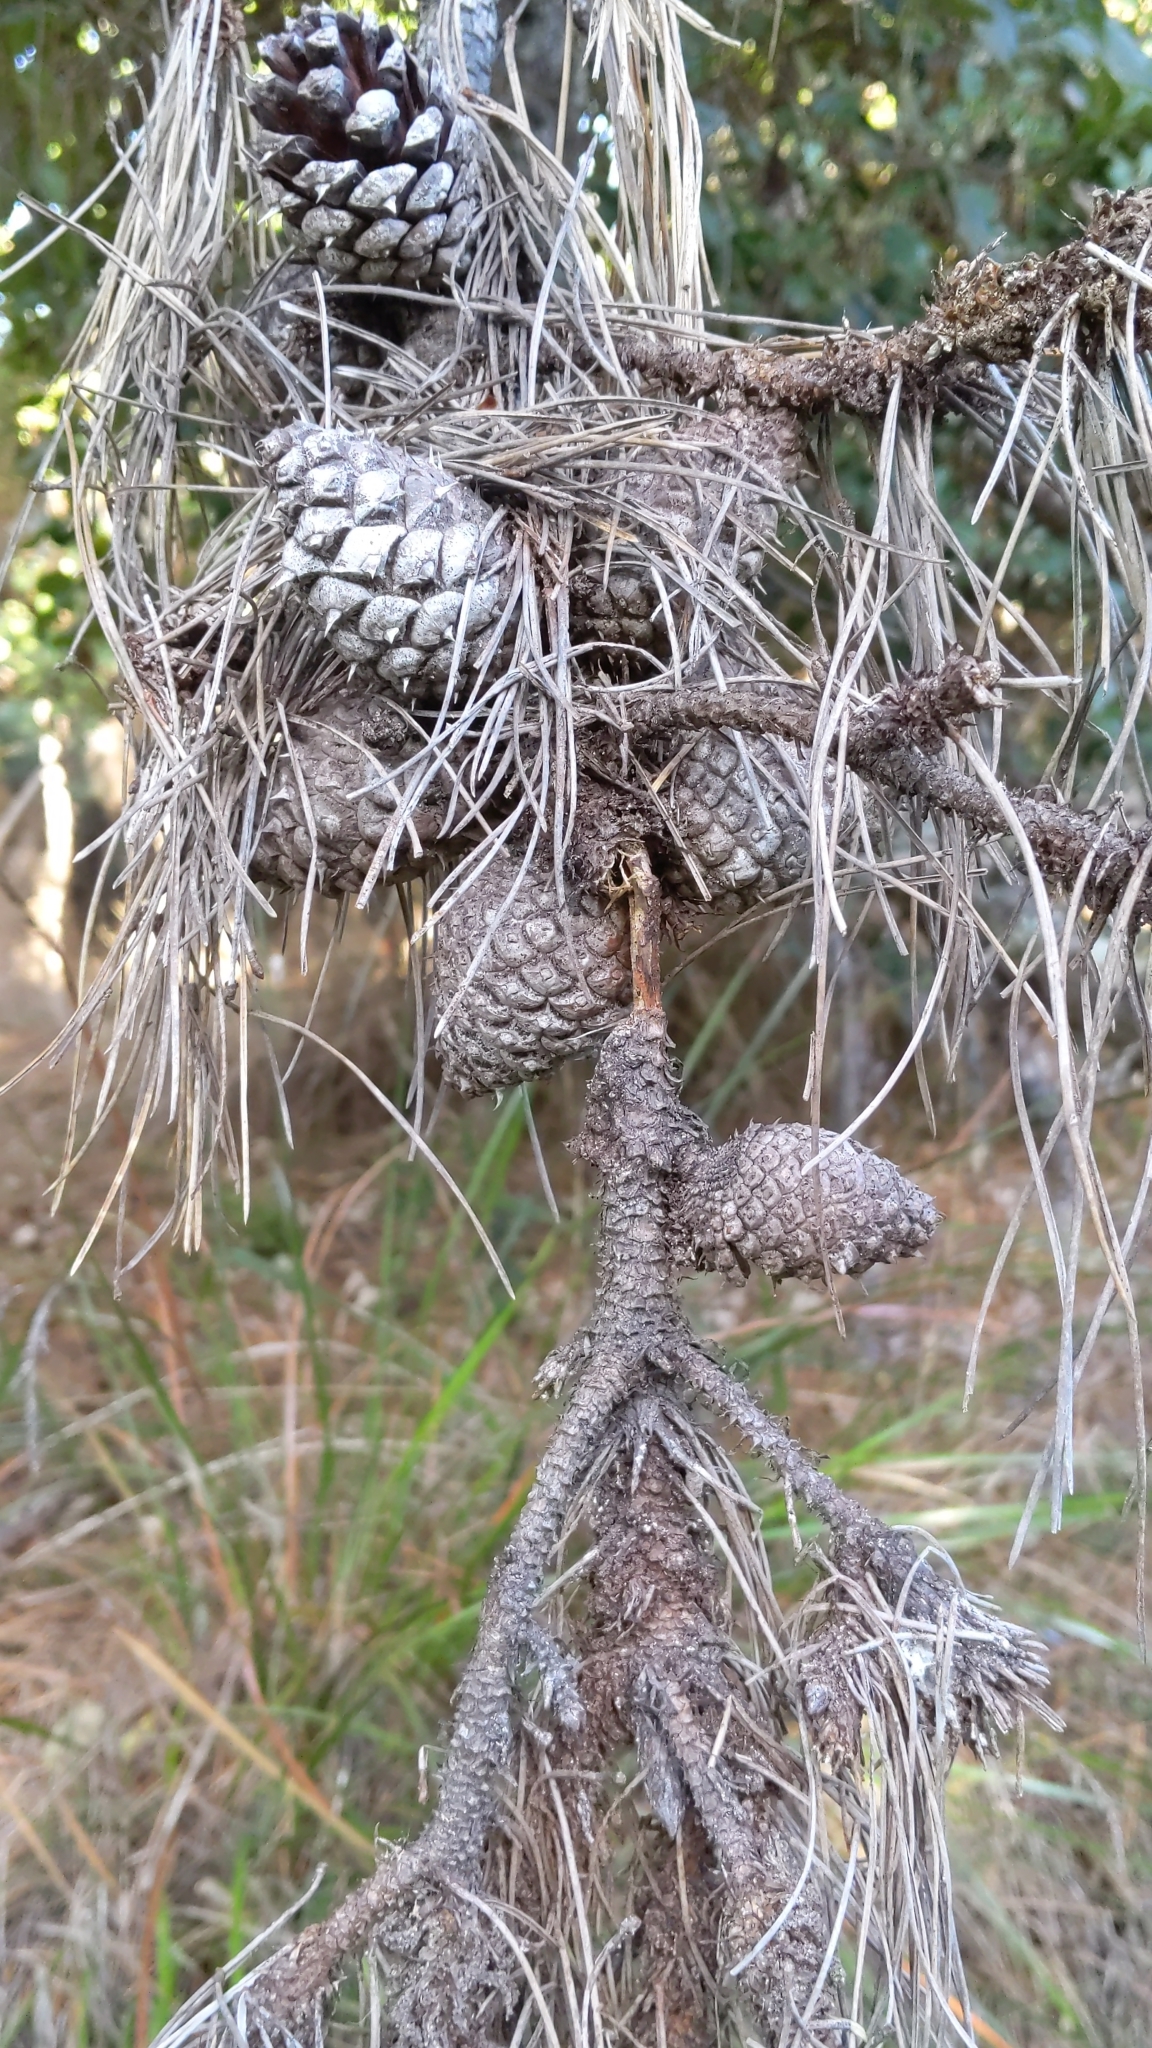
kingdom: Plantae
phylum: Tracheophyta
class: Pinopsida
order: Pinales
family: Pinaceae
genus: Pinus
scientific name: Pinus muricata
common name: Bishop pine
